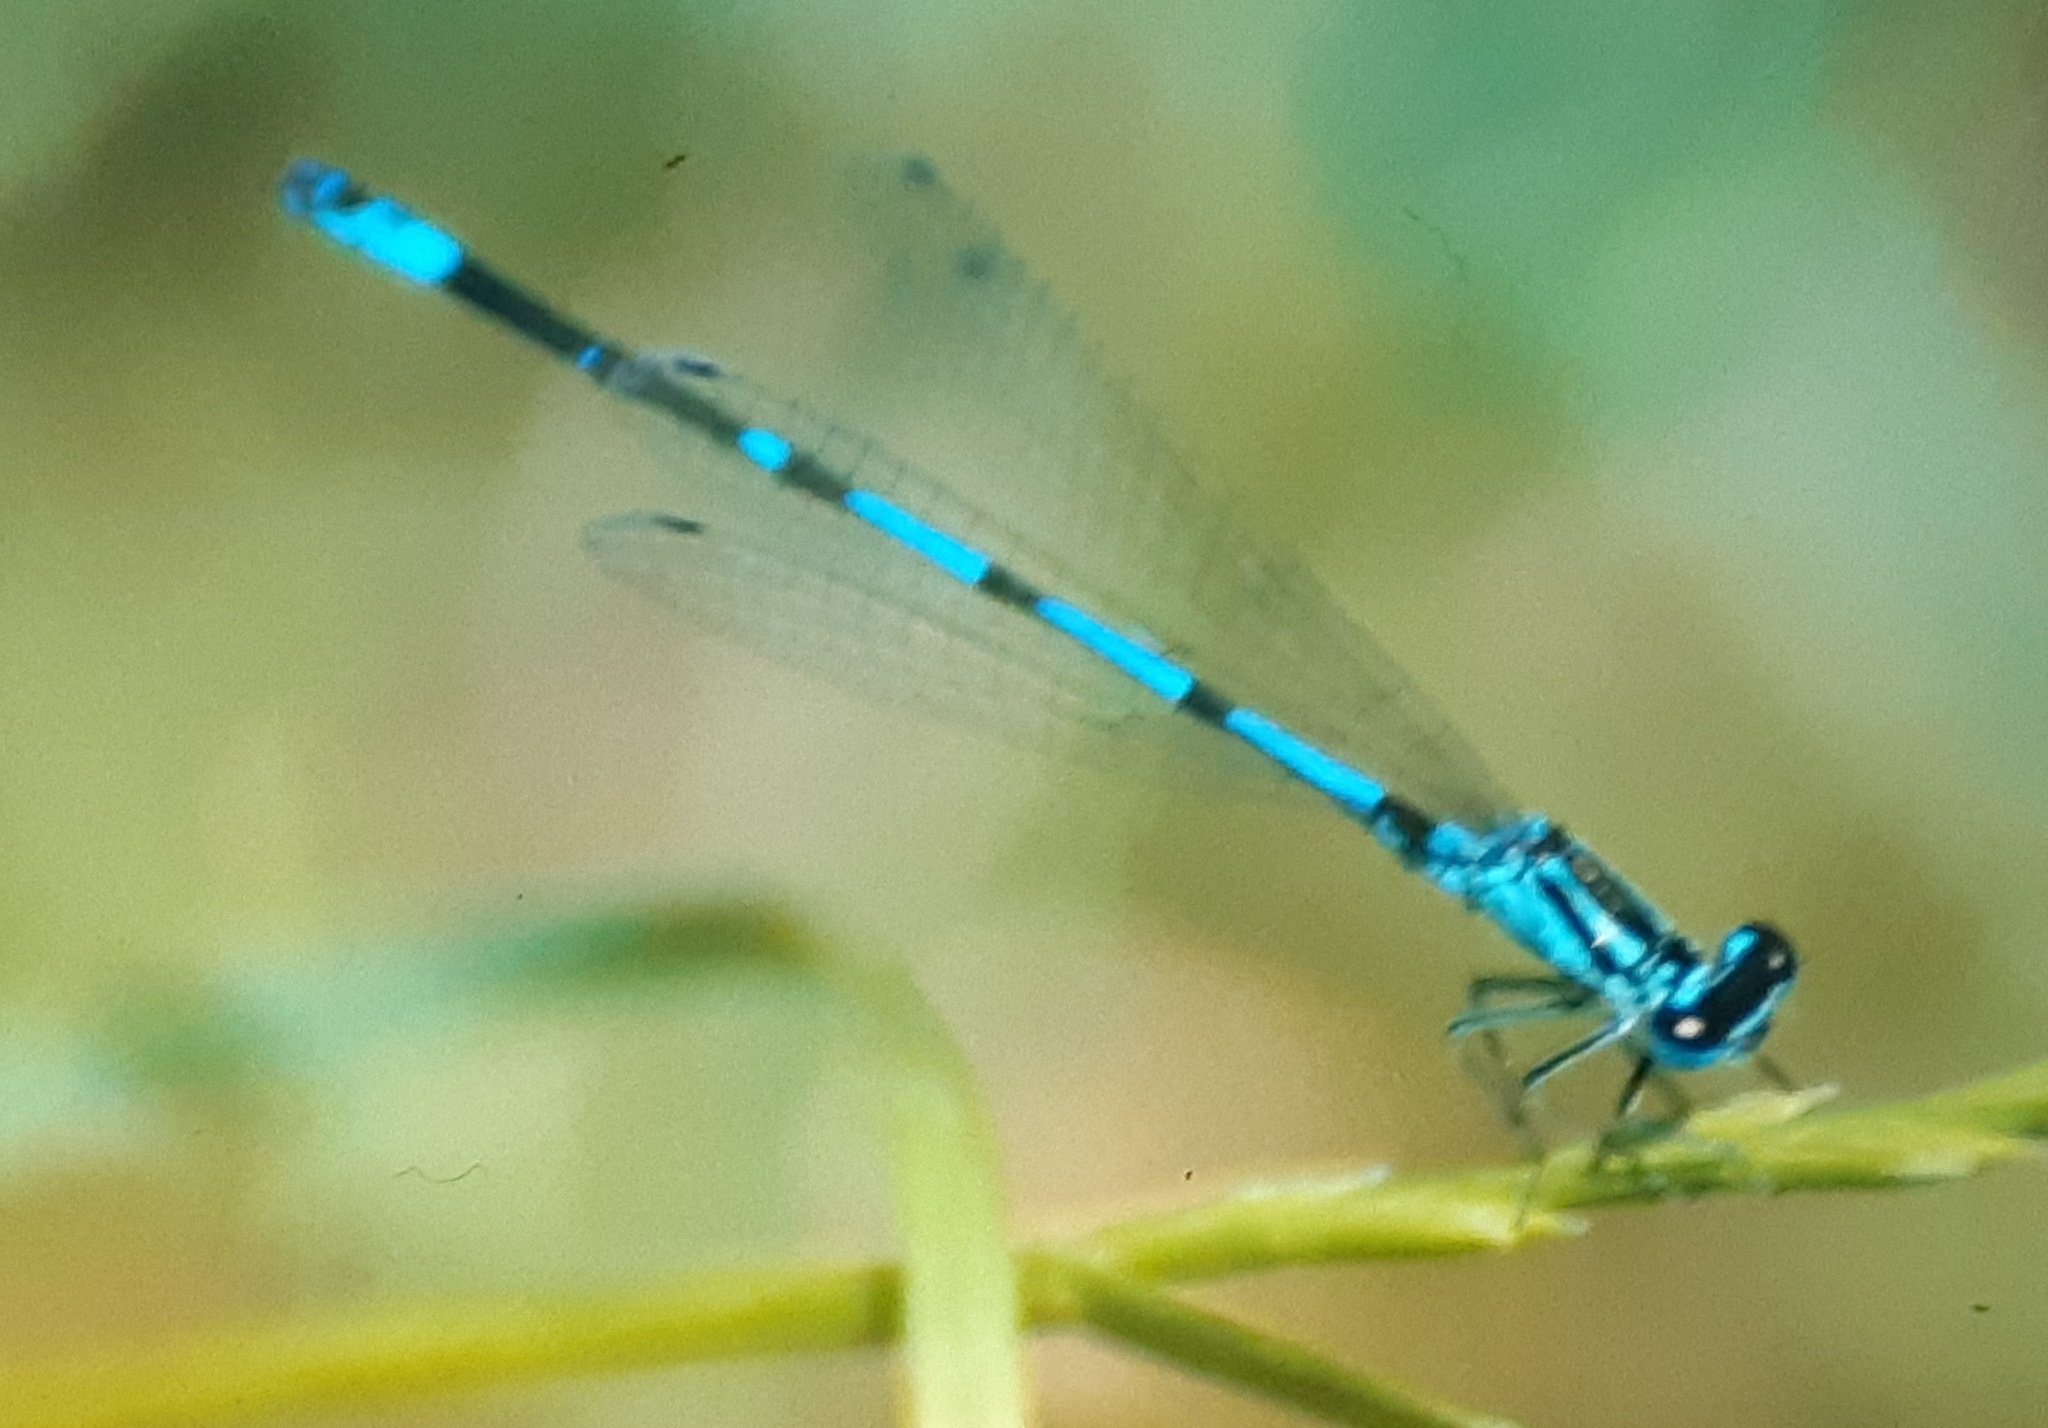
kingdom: Animalia
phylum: Arthropoda
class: Insecta
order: Odonata
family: Coenagrionidae
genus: Coenagrion
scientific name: Coenagrion pulchellum
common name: Variable bluet
